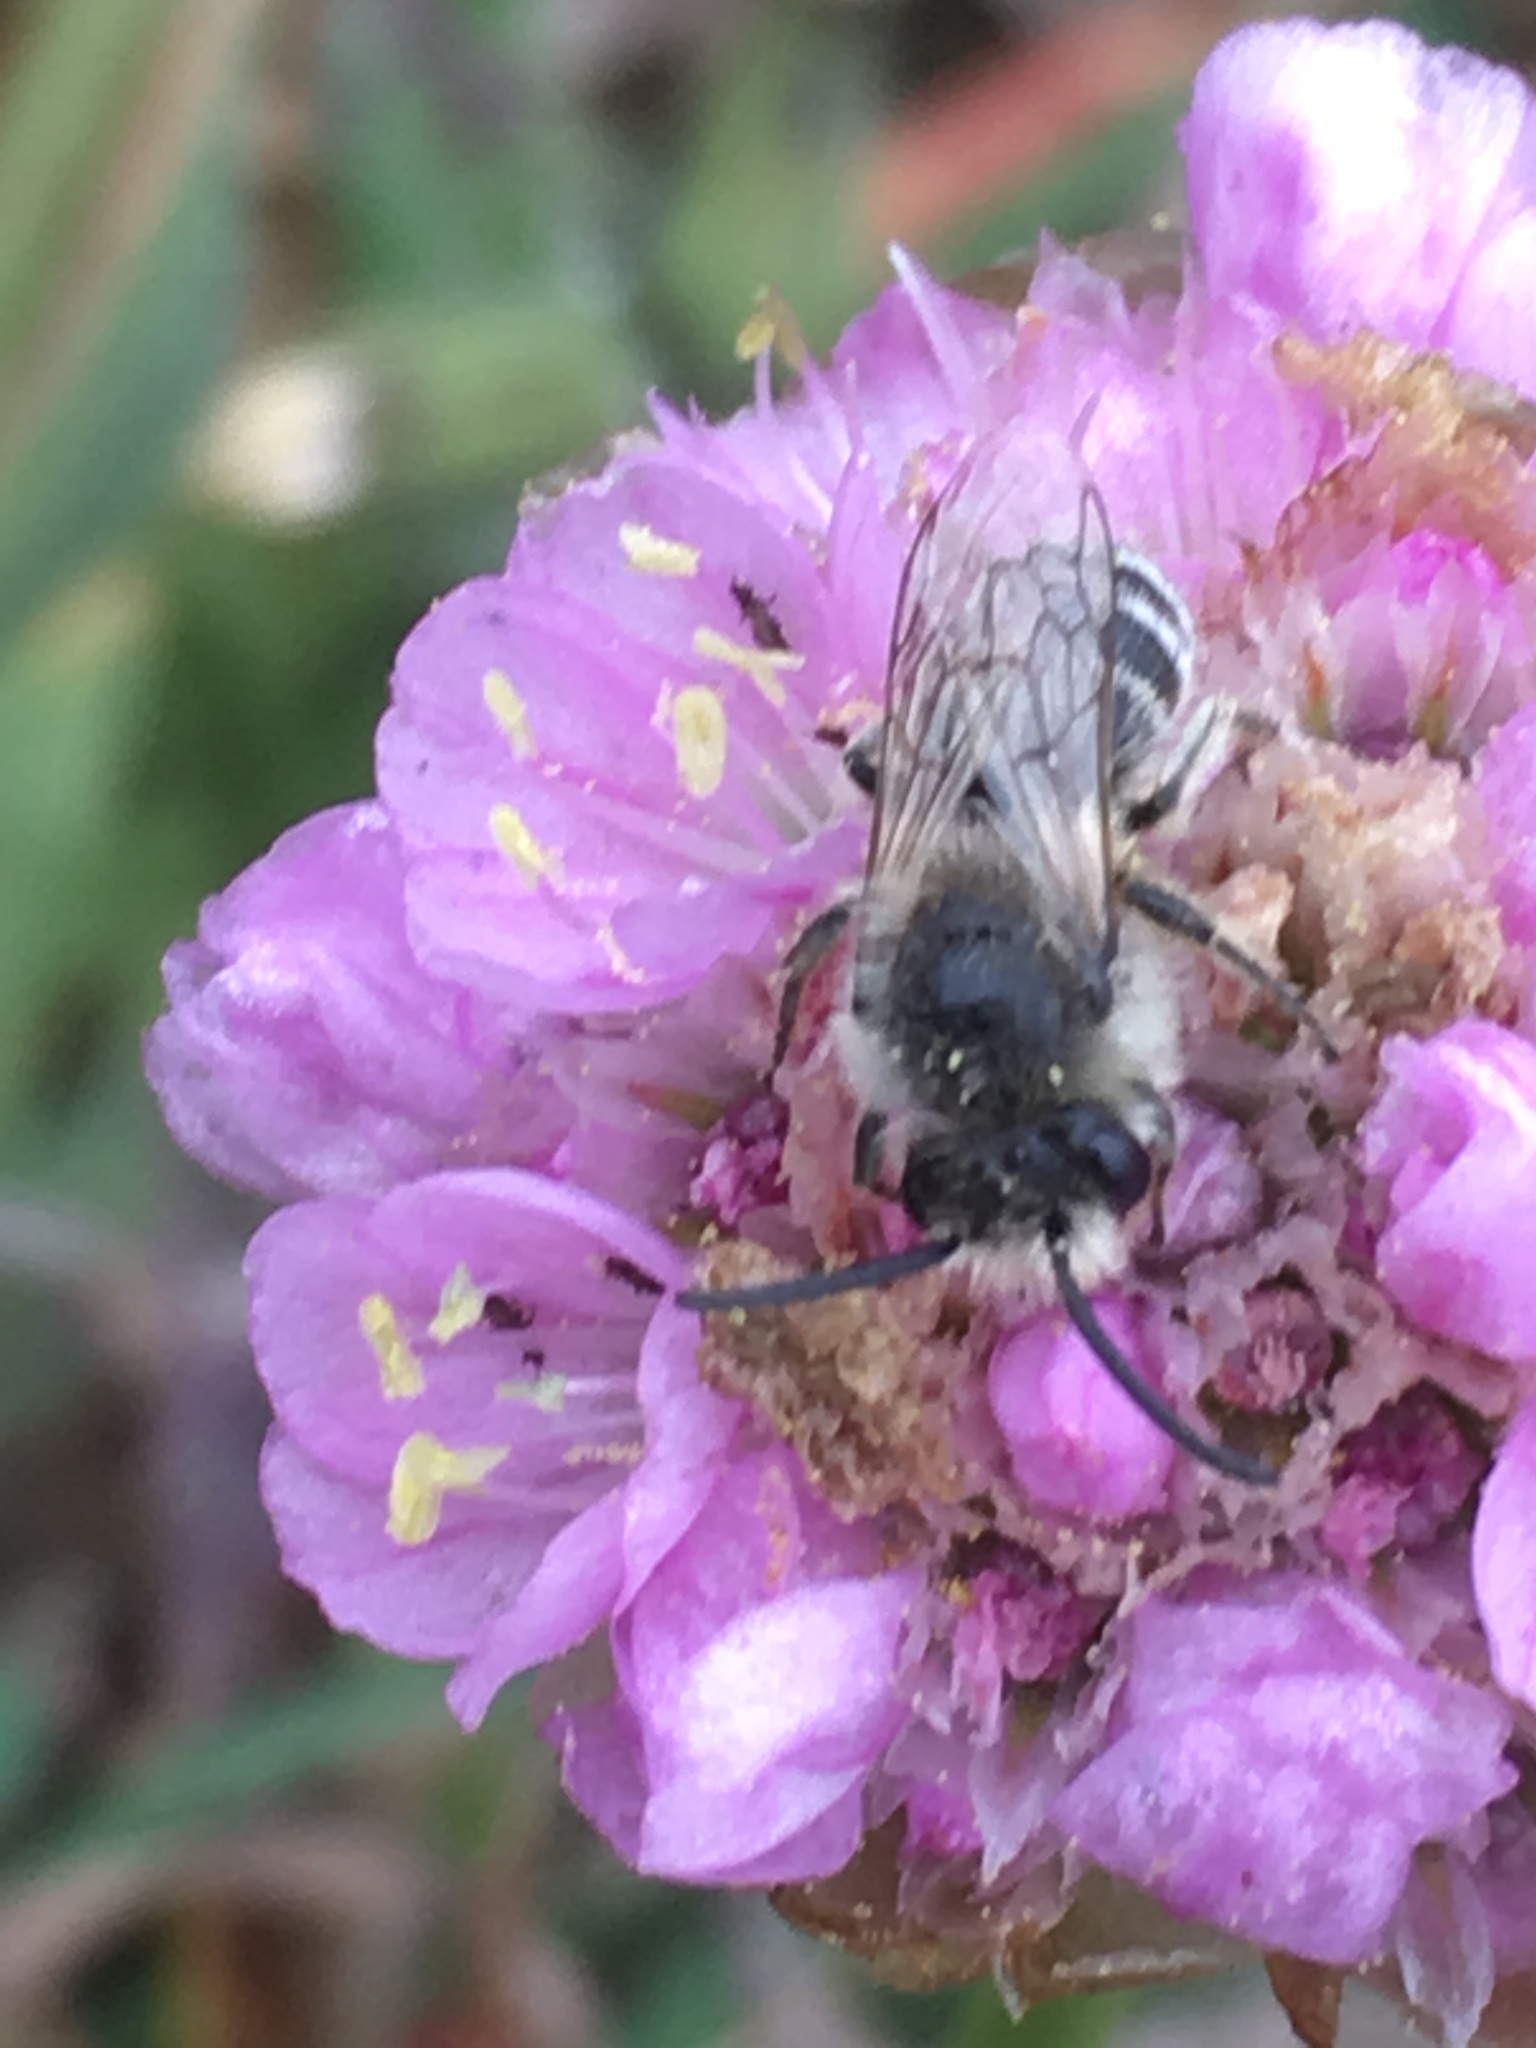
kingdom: Animalia
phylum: Arthropoda
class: Insecta
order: Hymenoptera
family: Colletidae
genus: Colletes
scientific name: Colletes
